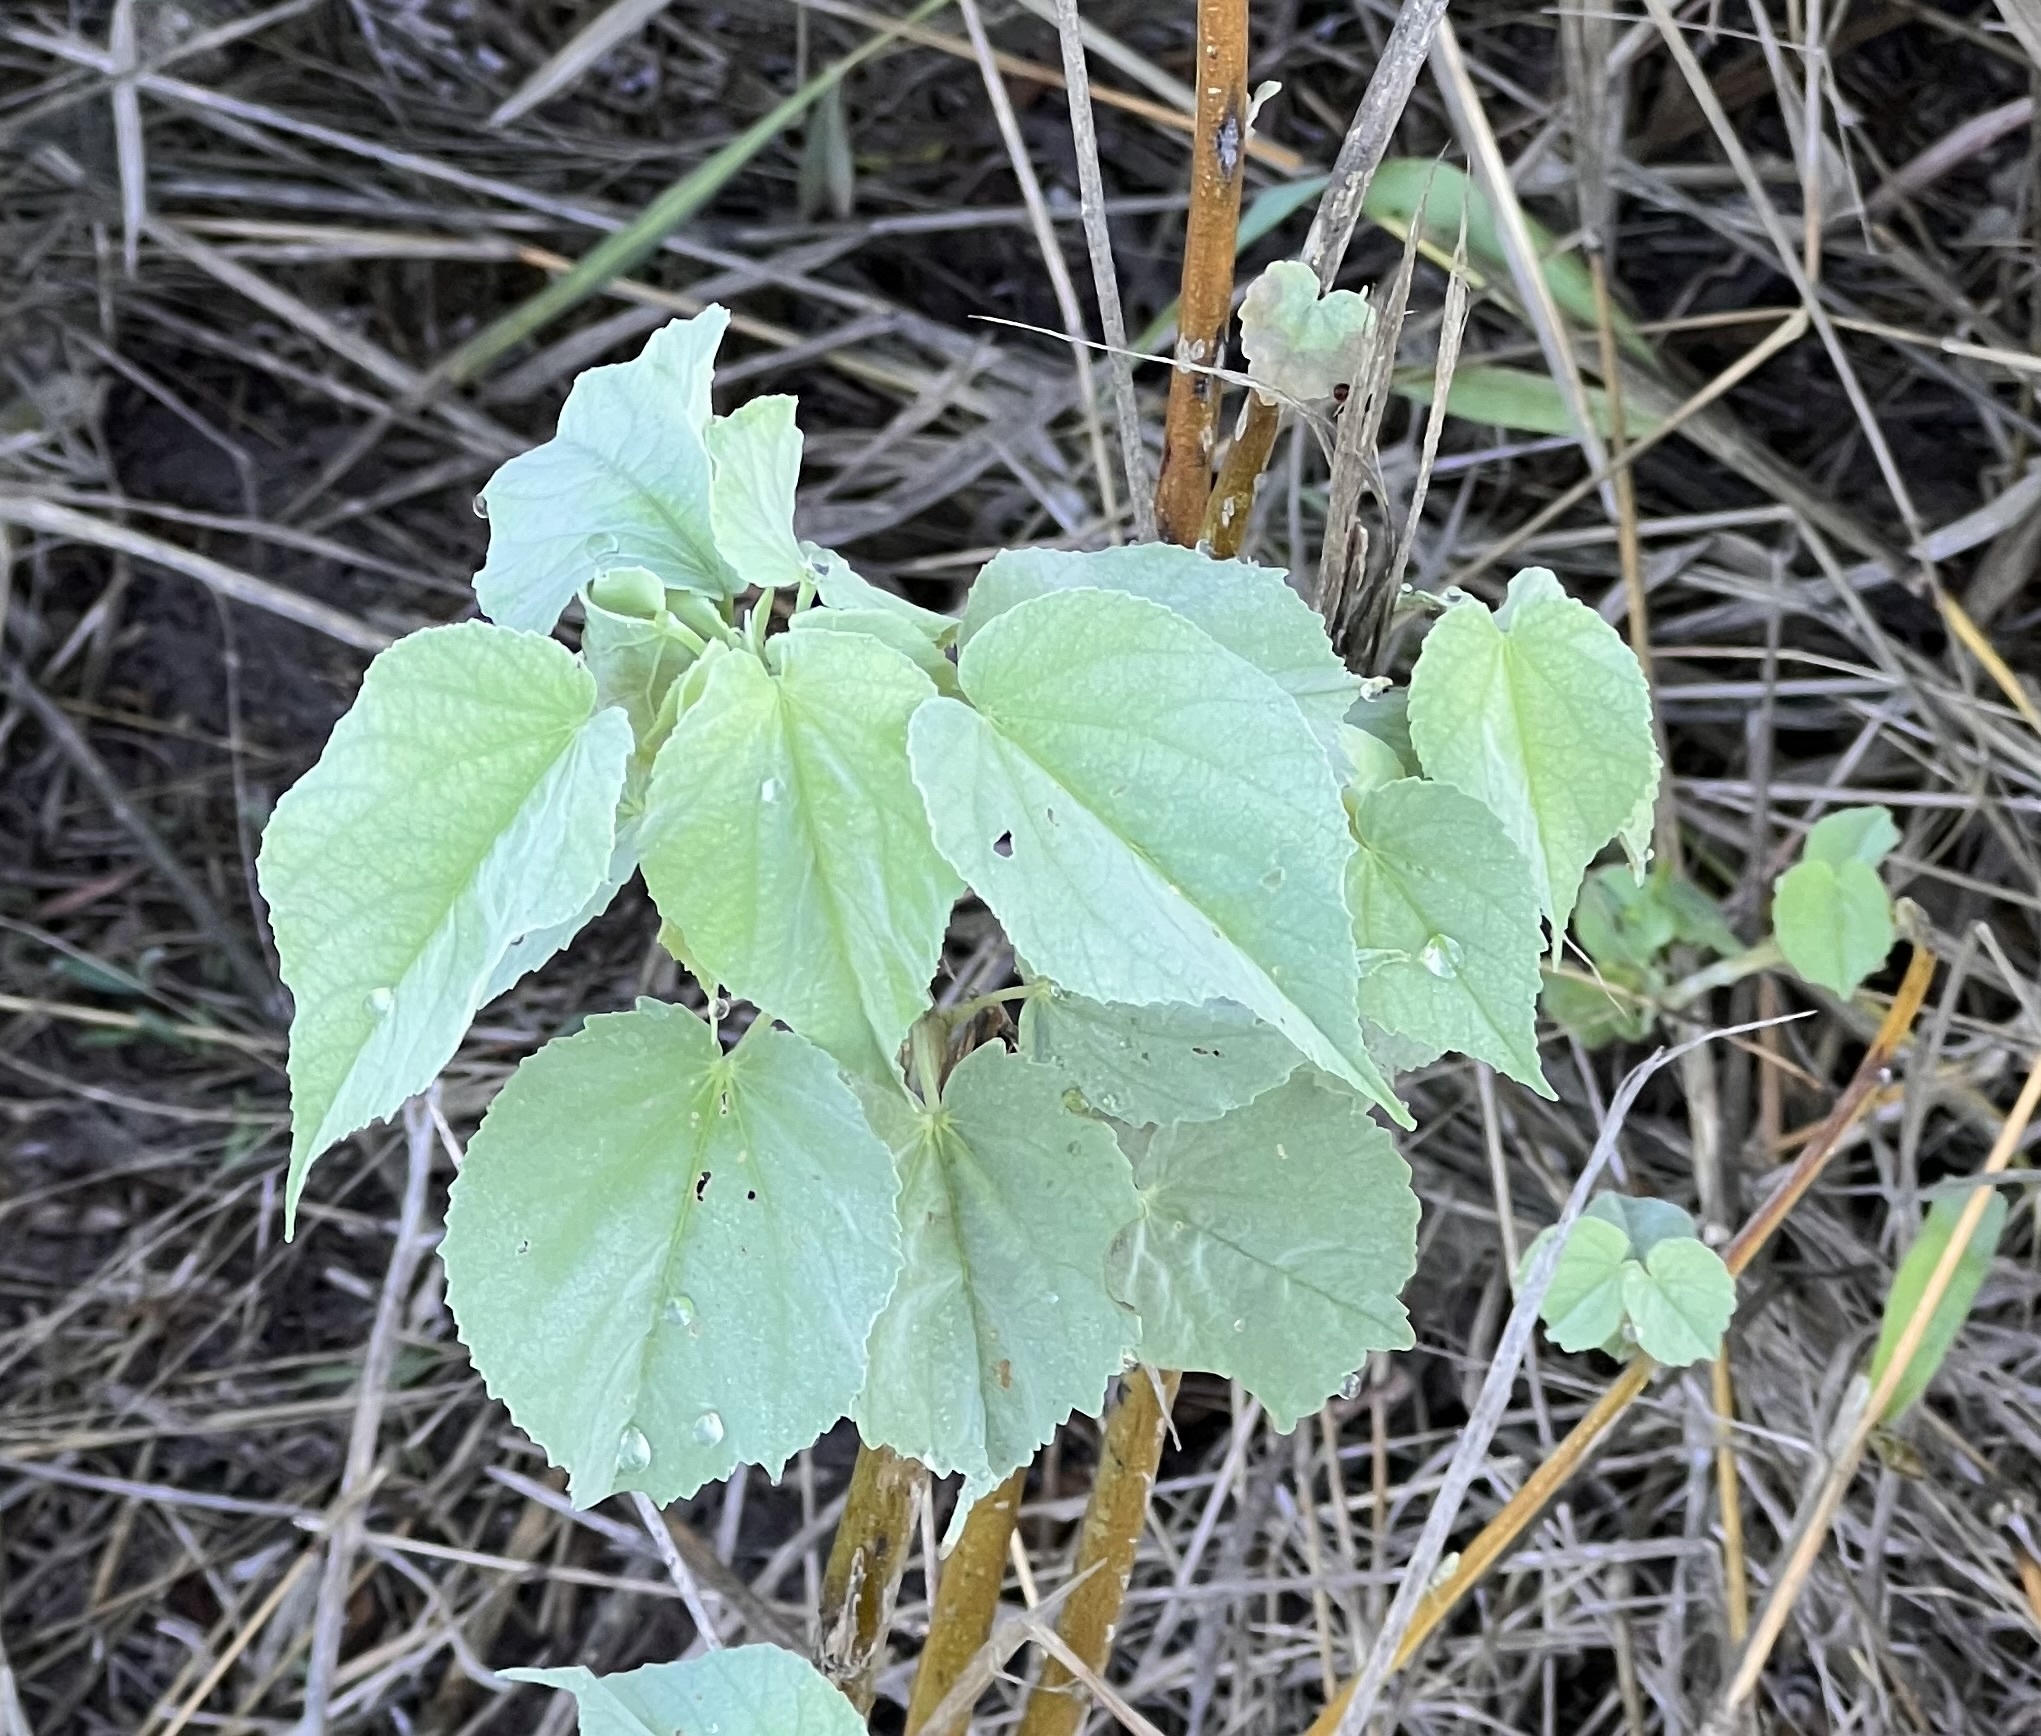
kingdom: Plantae
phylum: Tracheophyta
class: Magnoliopsida
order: Malvales
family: Malvaceae
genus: Abutilon
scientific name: Abutilon trisulcatum
